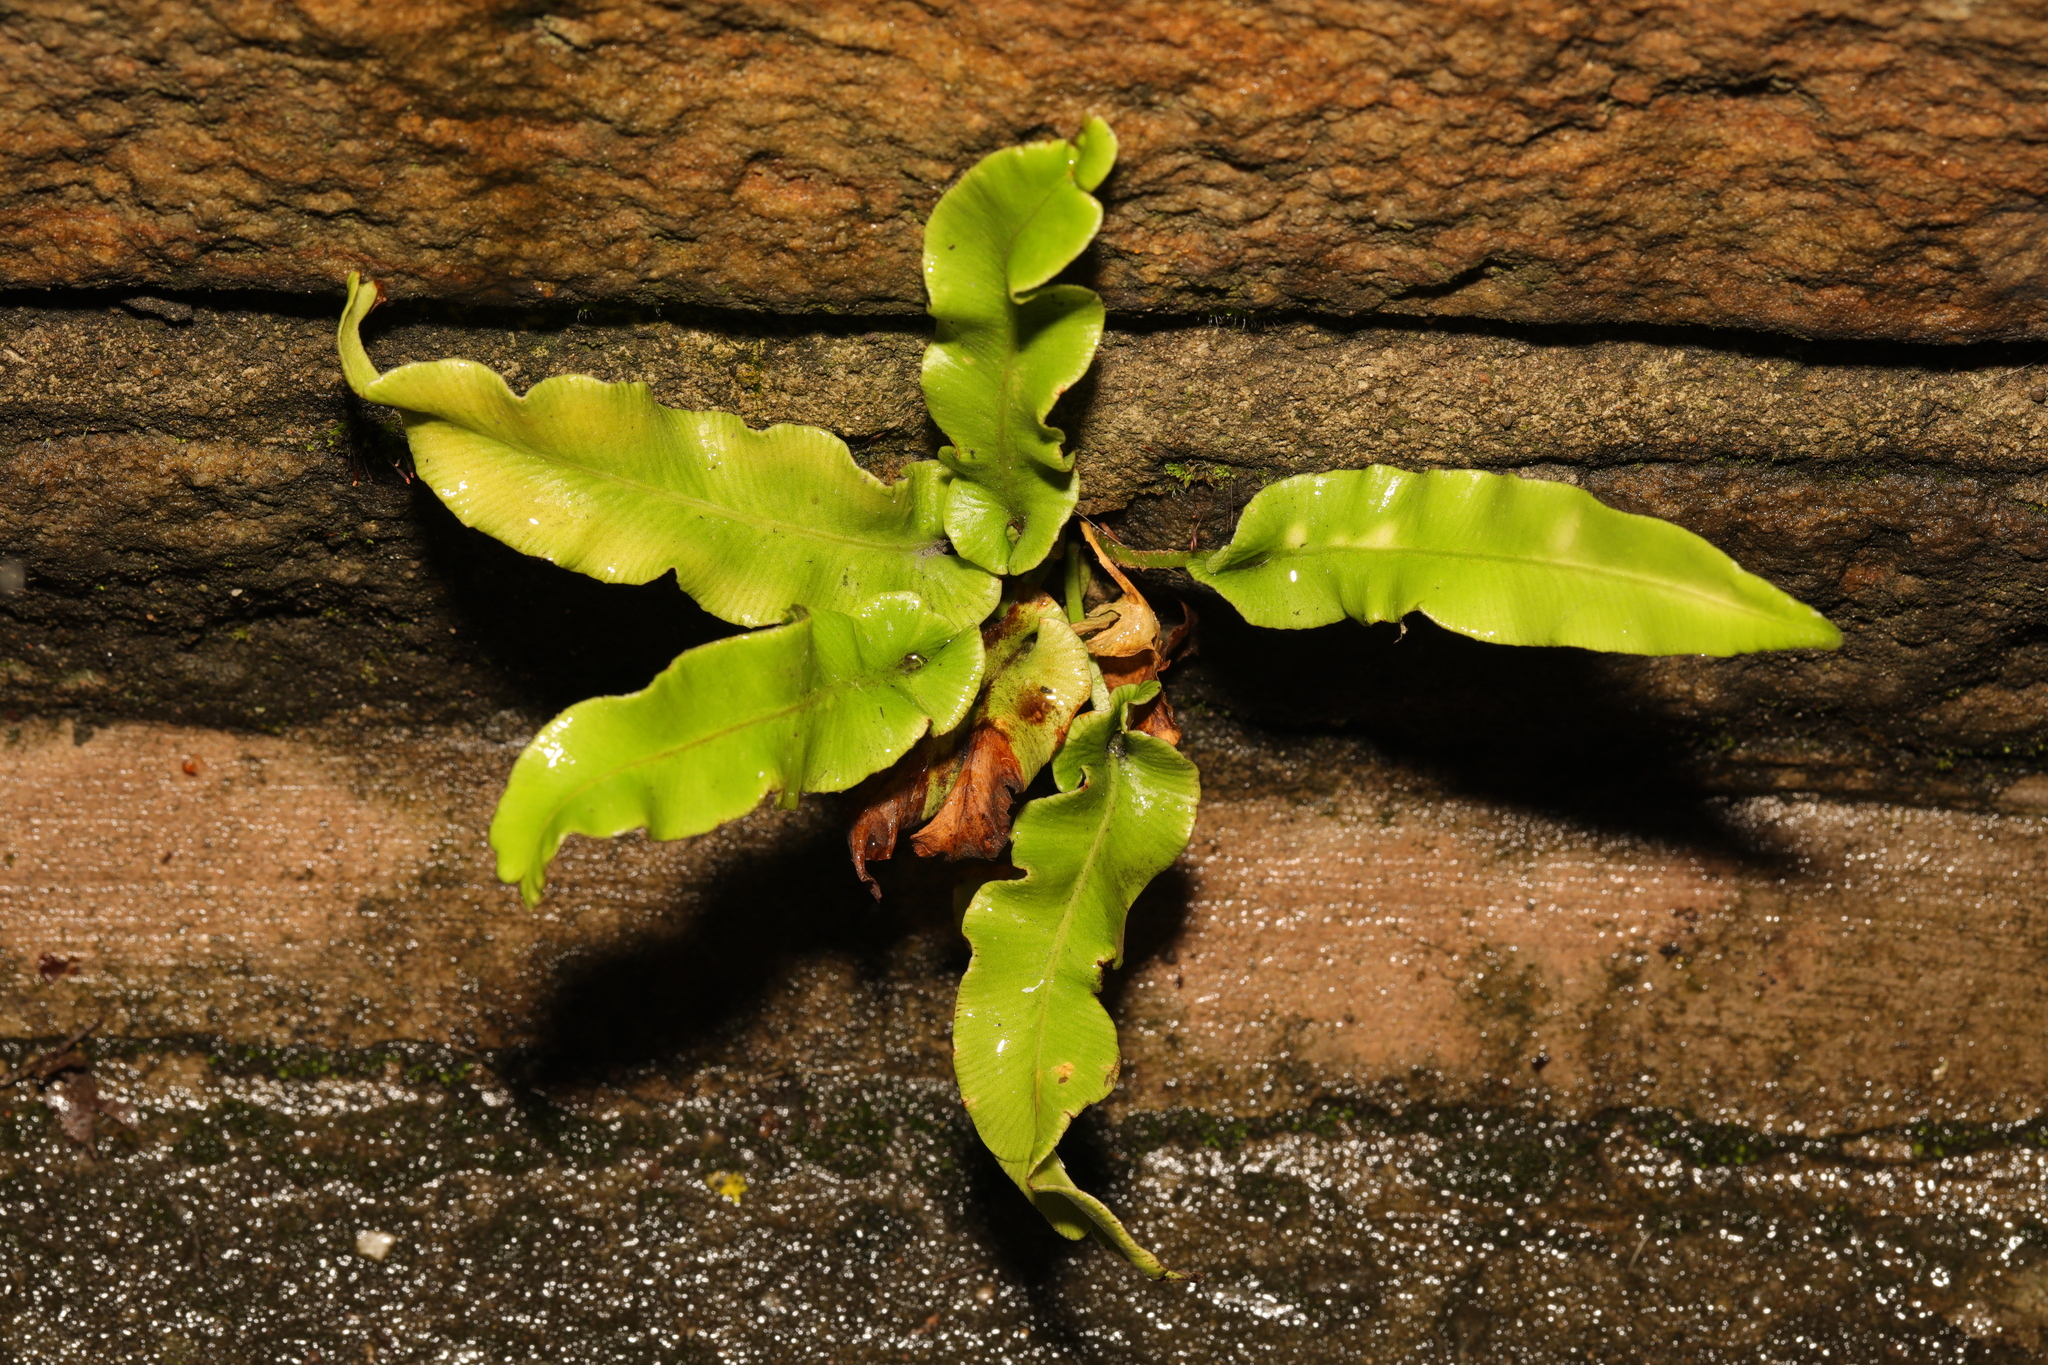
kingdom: Plantae
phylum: Tracheophyta
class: Polypodiopsida
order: Polypodiales
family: Aspleniaceae
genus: Asplenium
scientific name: Asplenium scolopendrium
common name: Hart's-tongue fern
